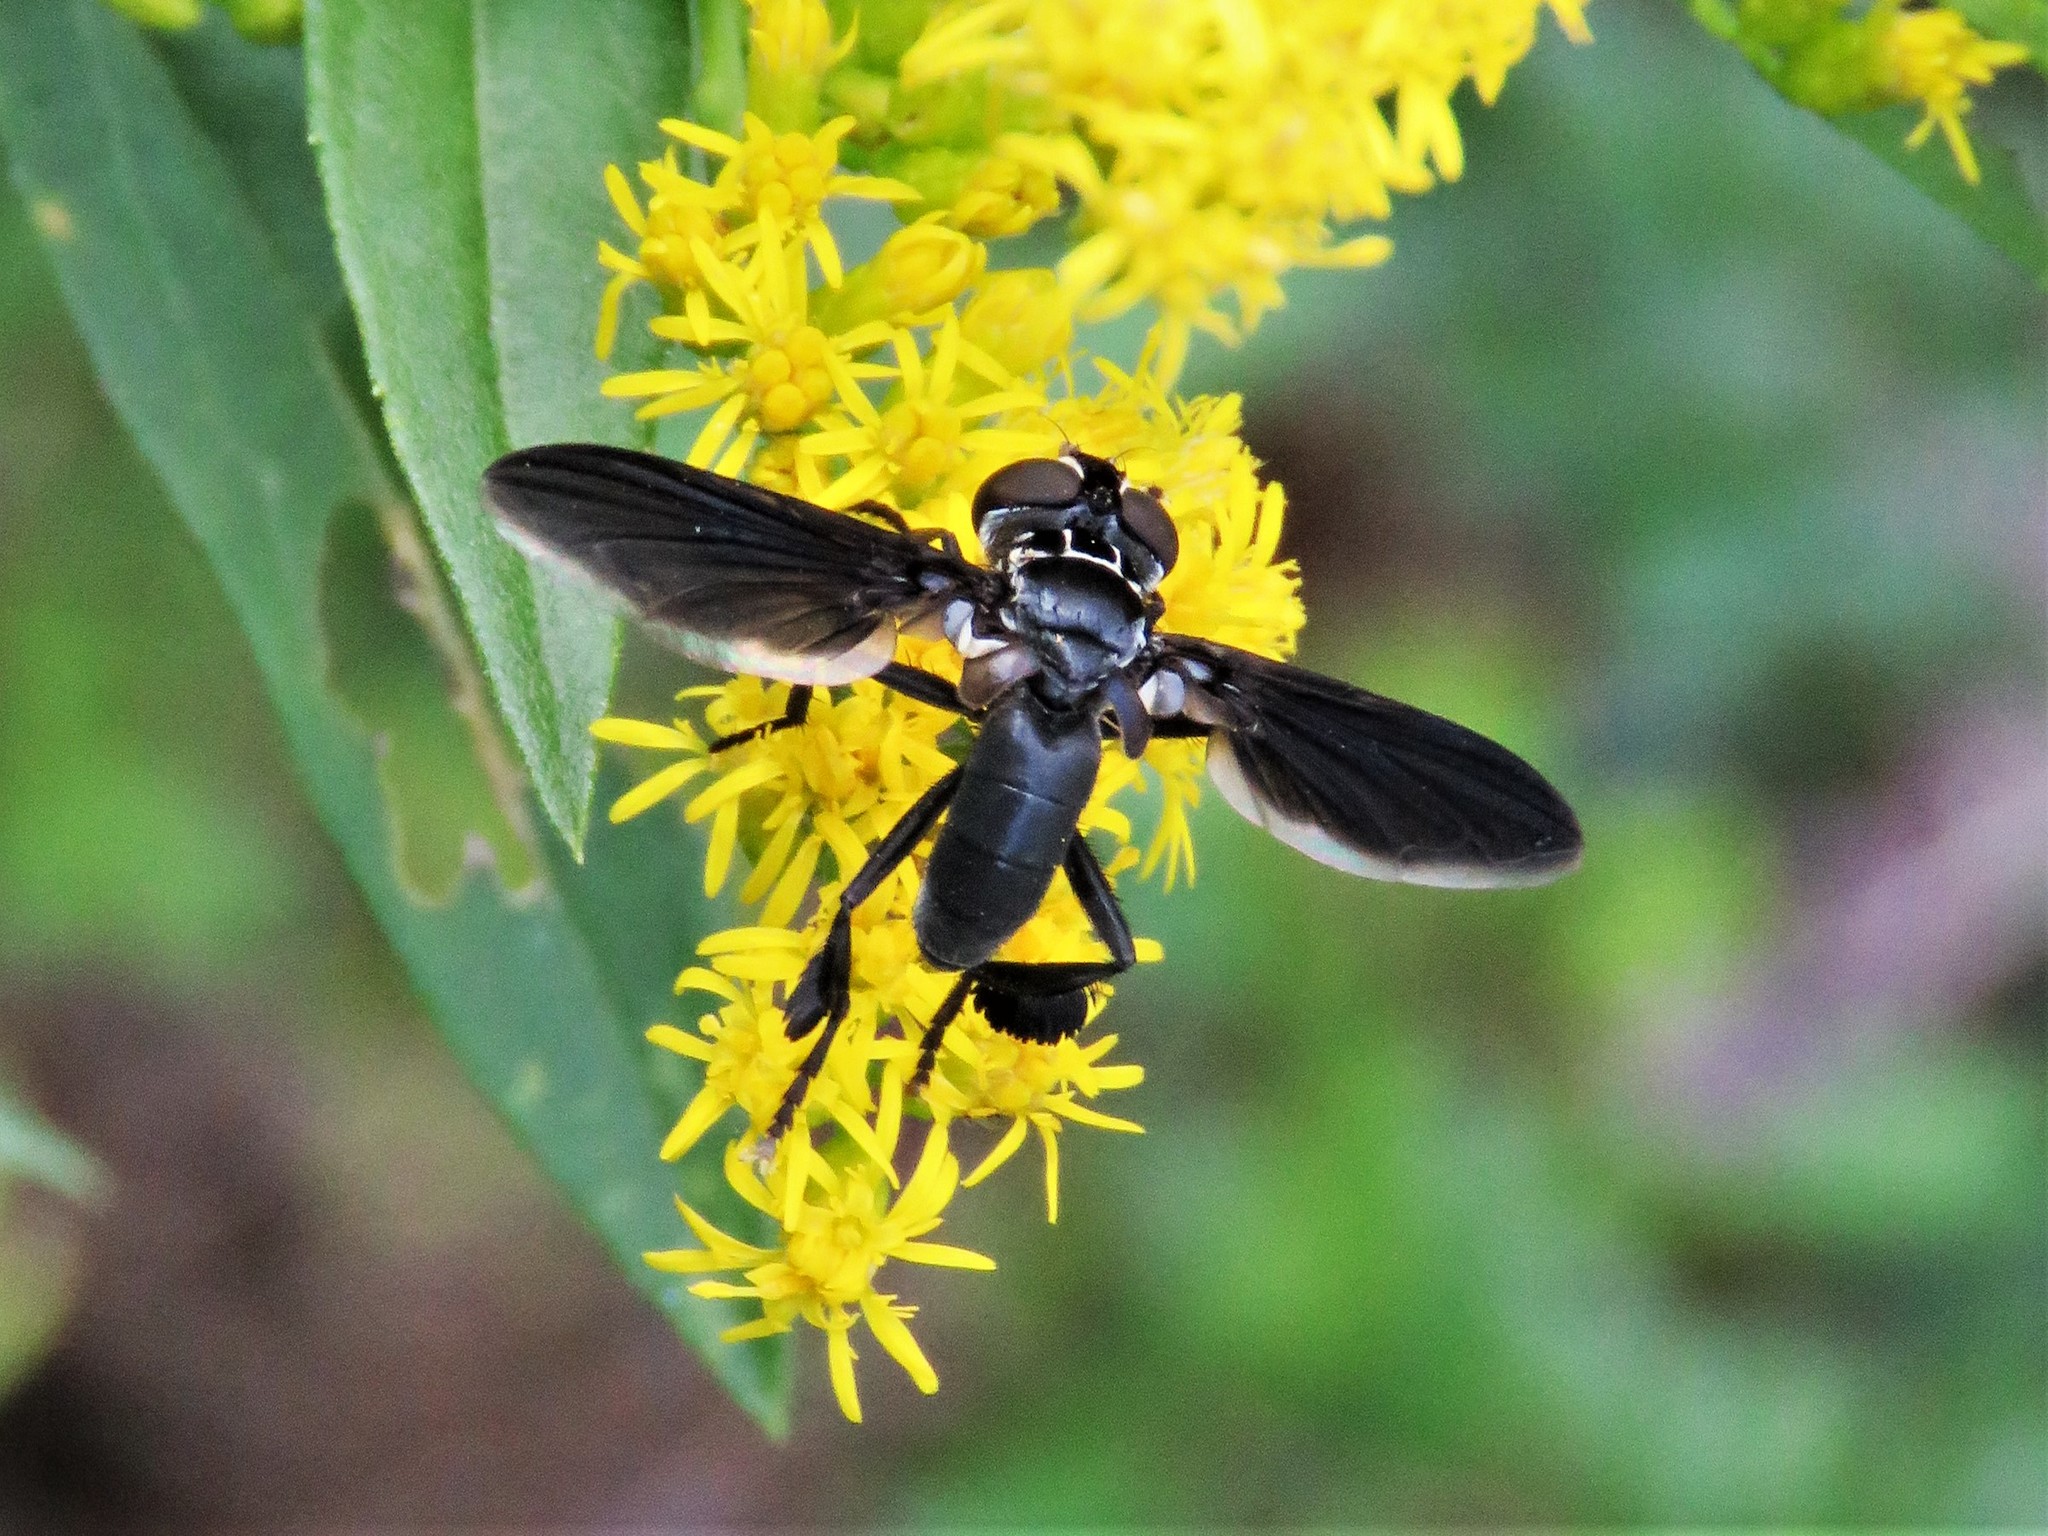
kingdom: Animalia
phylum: Arthropoda
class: Insecta
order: Diptera
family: Tachinidae
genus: Trichopoda
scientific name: Trichopoda lanipes
